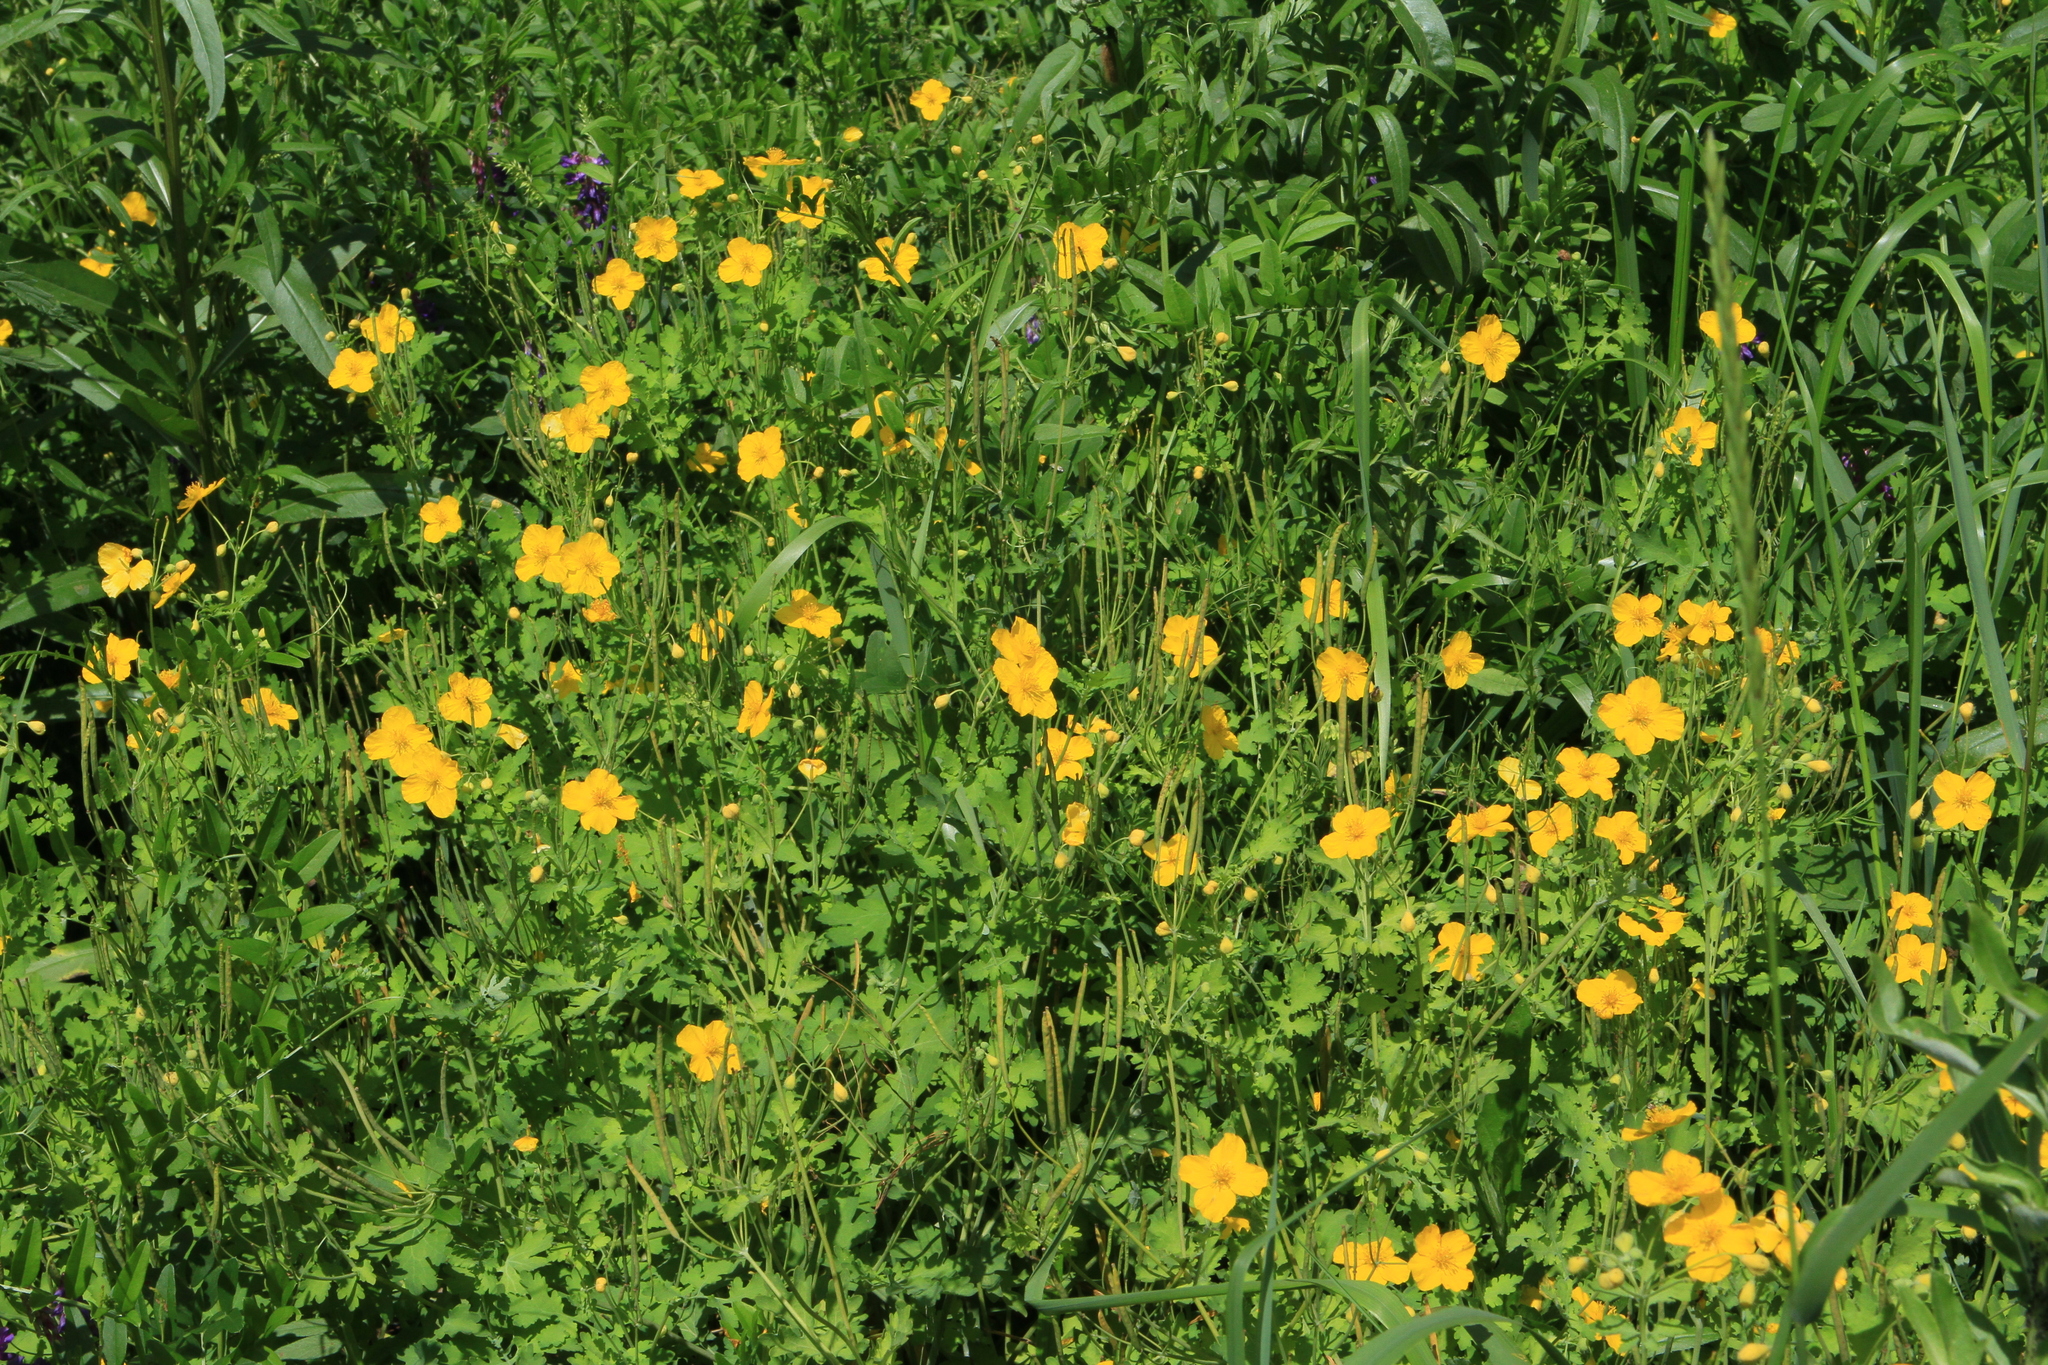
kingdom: Plantae
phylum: Tracheophyta
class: Magnoliopsida
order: Ranunculales
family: Papaveraceae
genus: Chelidonium
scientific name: Chelidonium majus
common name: Greater celandine
